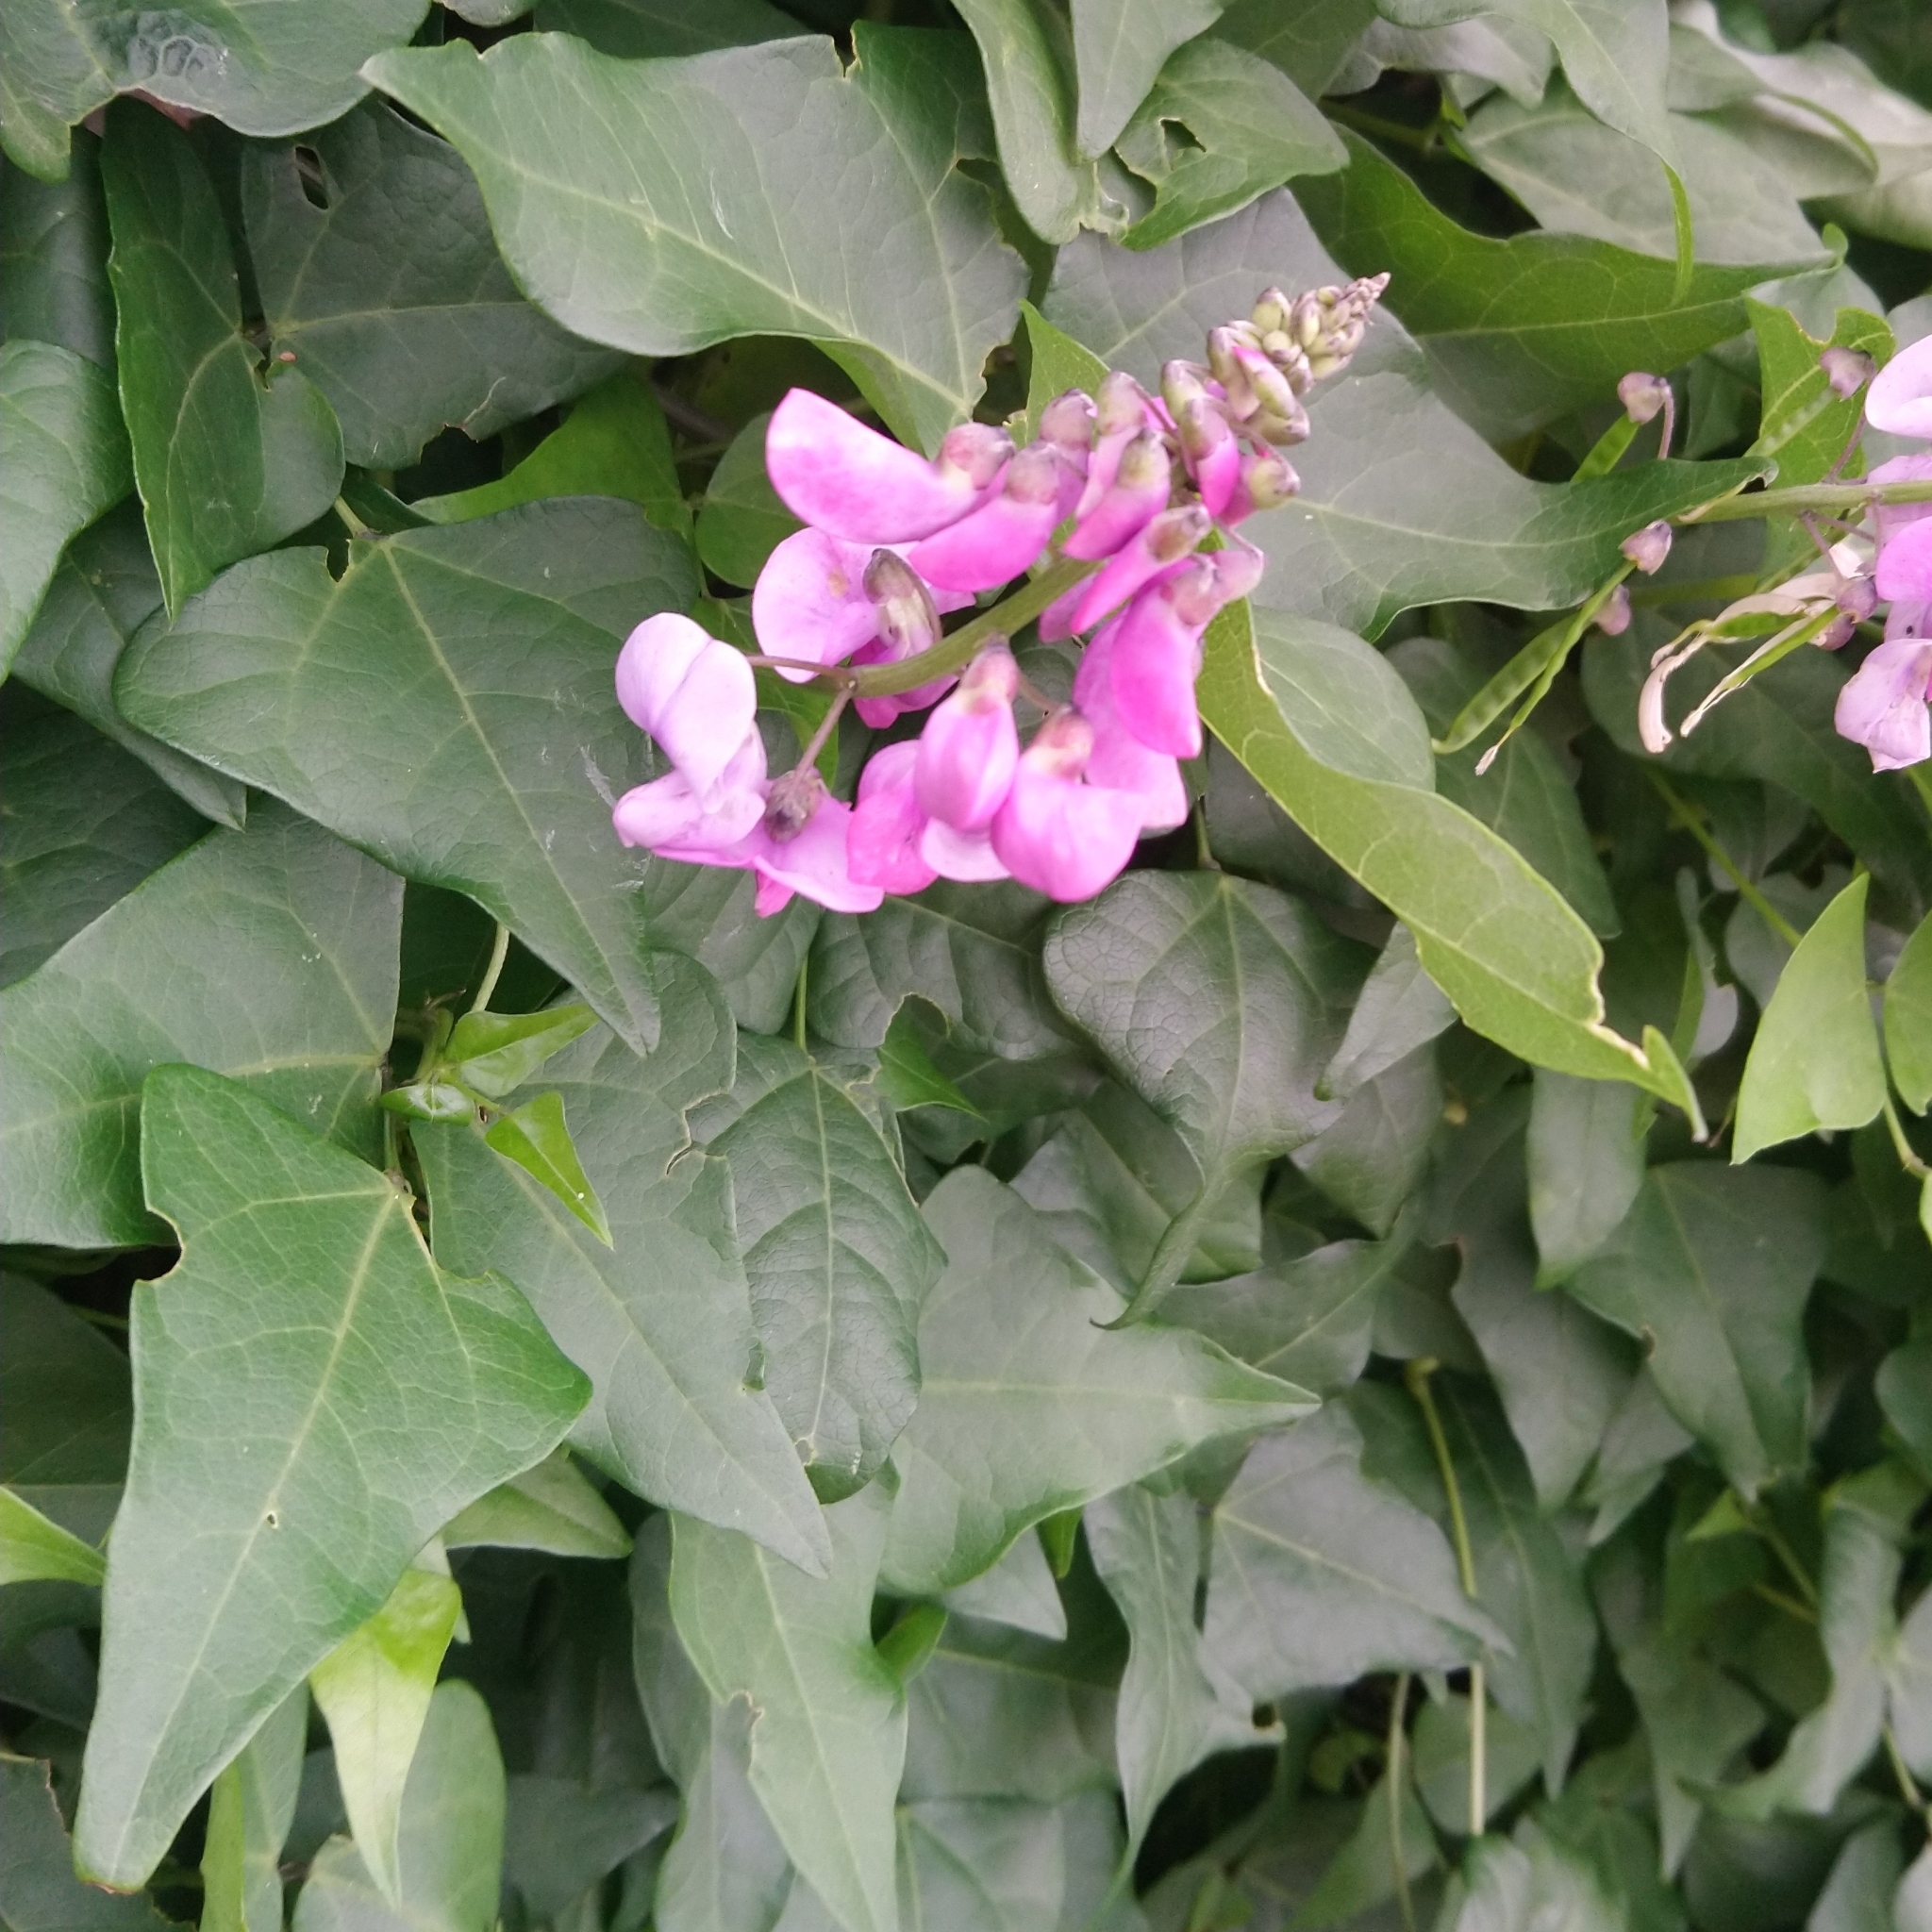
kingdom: Plantae
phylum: Tracheophyta
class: Magnoliopsida
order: Fabales
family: Fabaceae
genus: Dipogon
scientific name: Dipogon lignosus
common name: Okie bean
